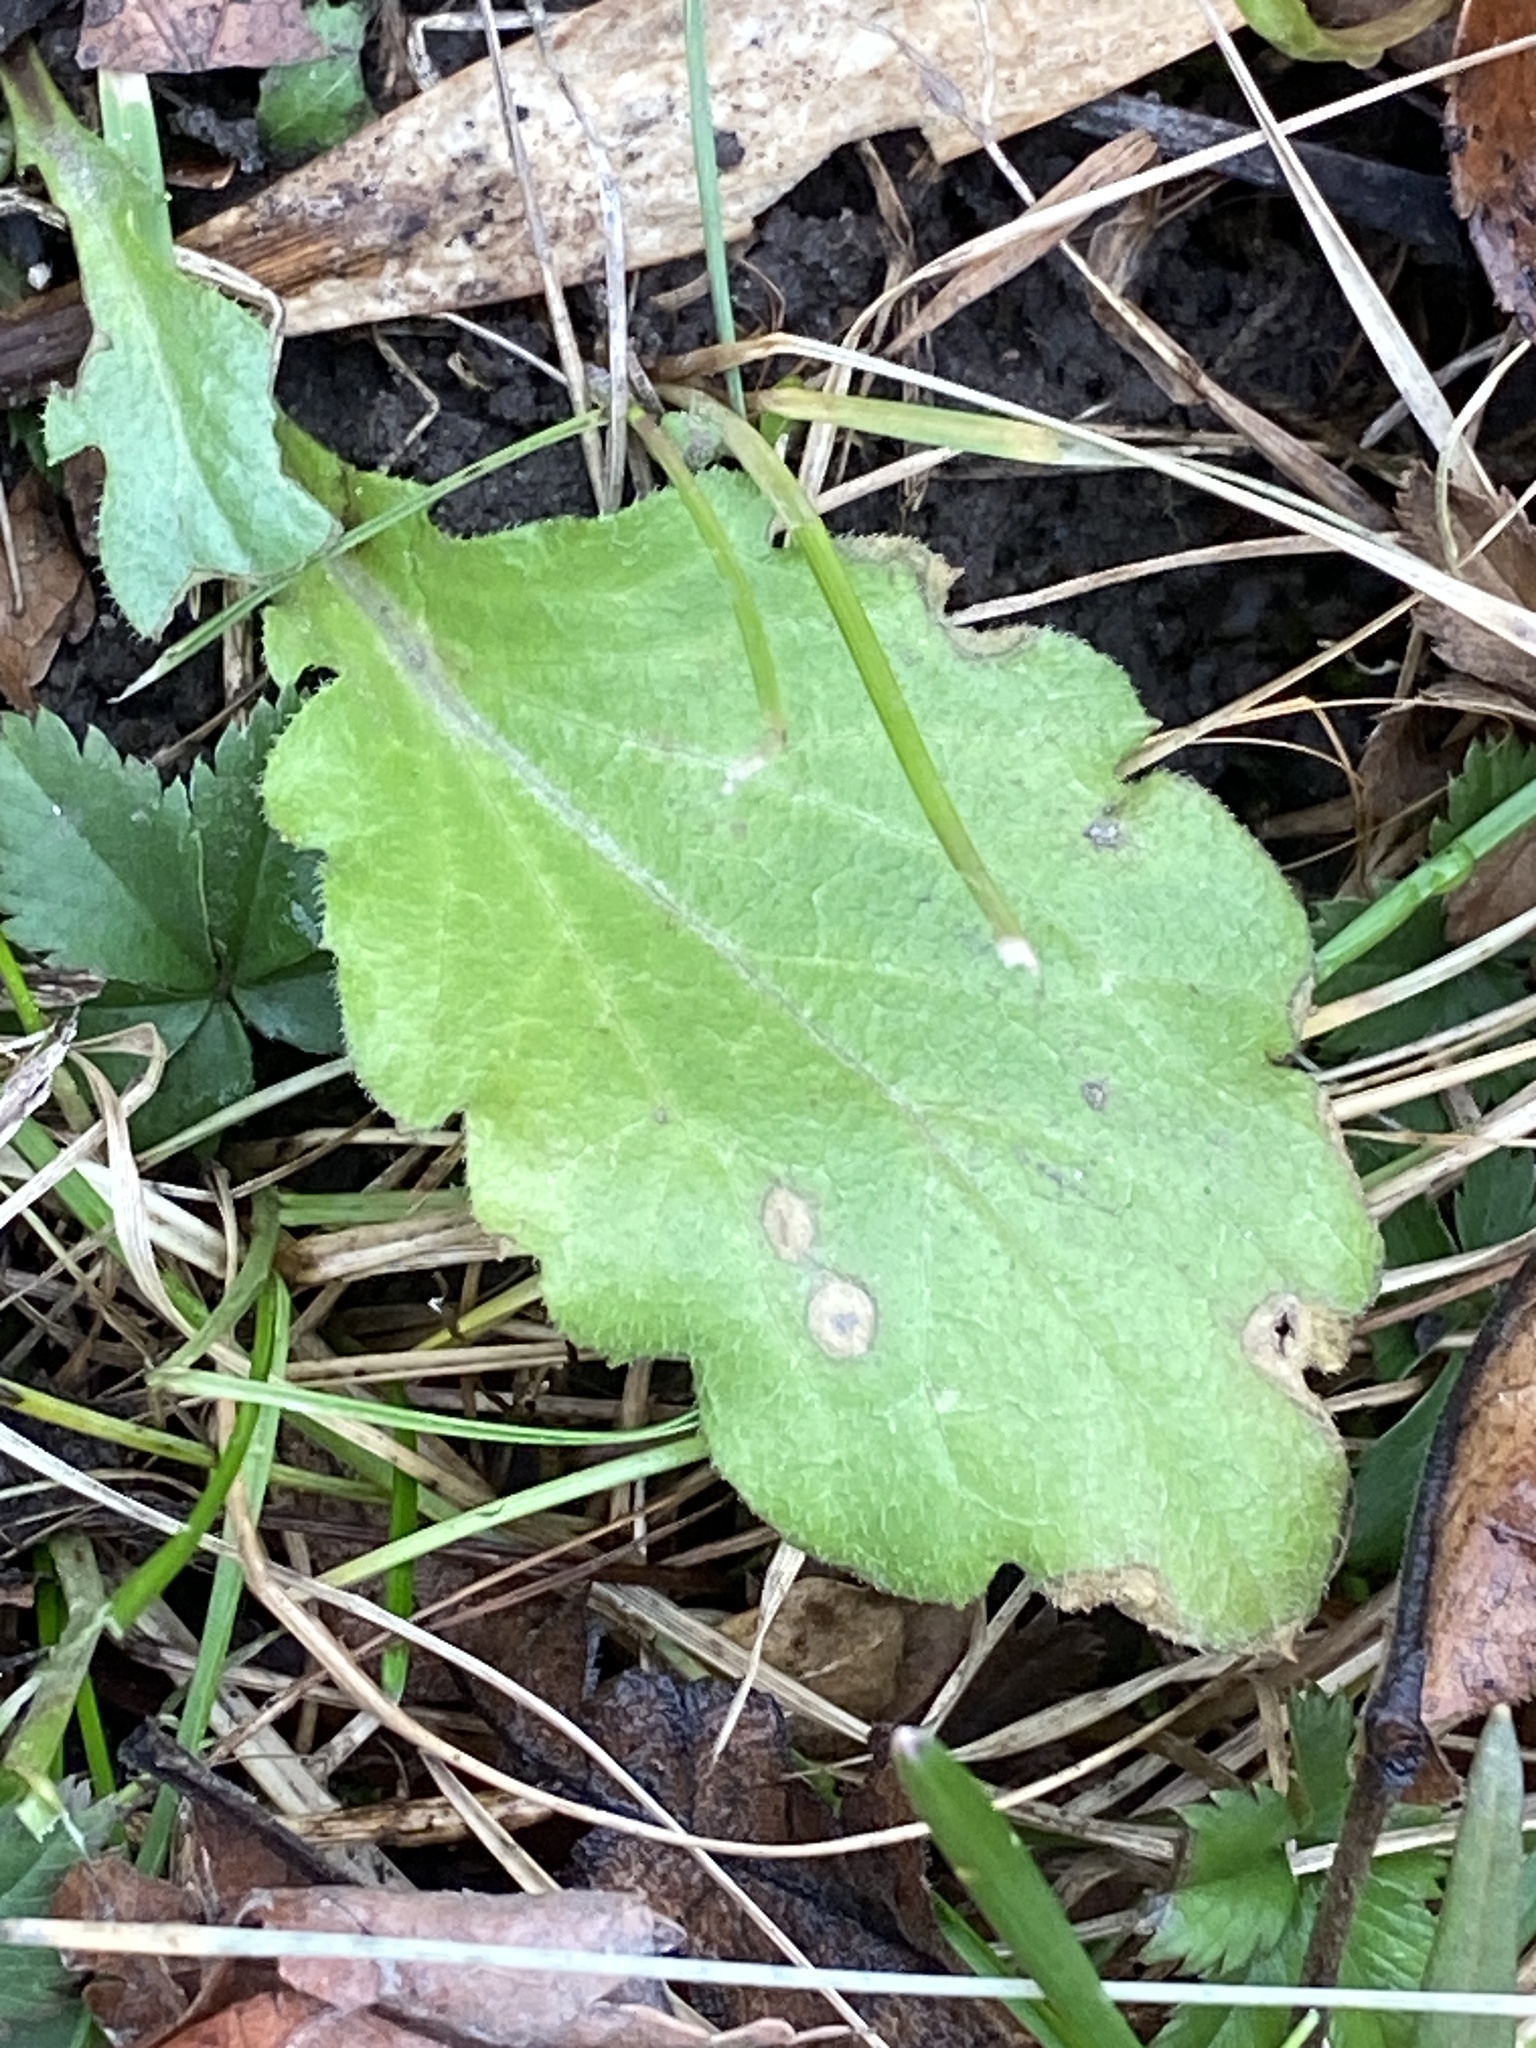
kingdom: Plantae
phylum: Tracheophyta
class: Magnoliopsida
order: Asterales
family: Asteraceae
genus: Erigeron
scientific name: Erigeron annuus
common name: Tall fleabane
